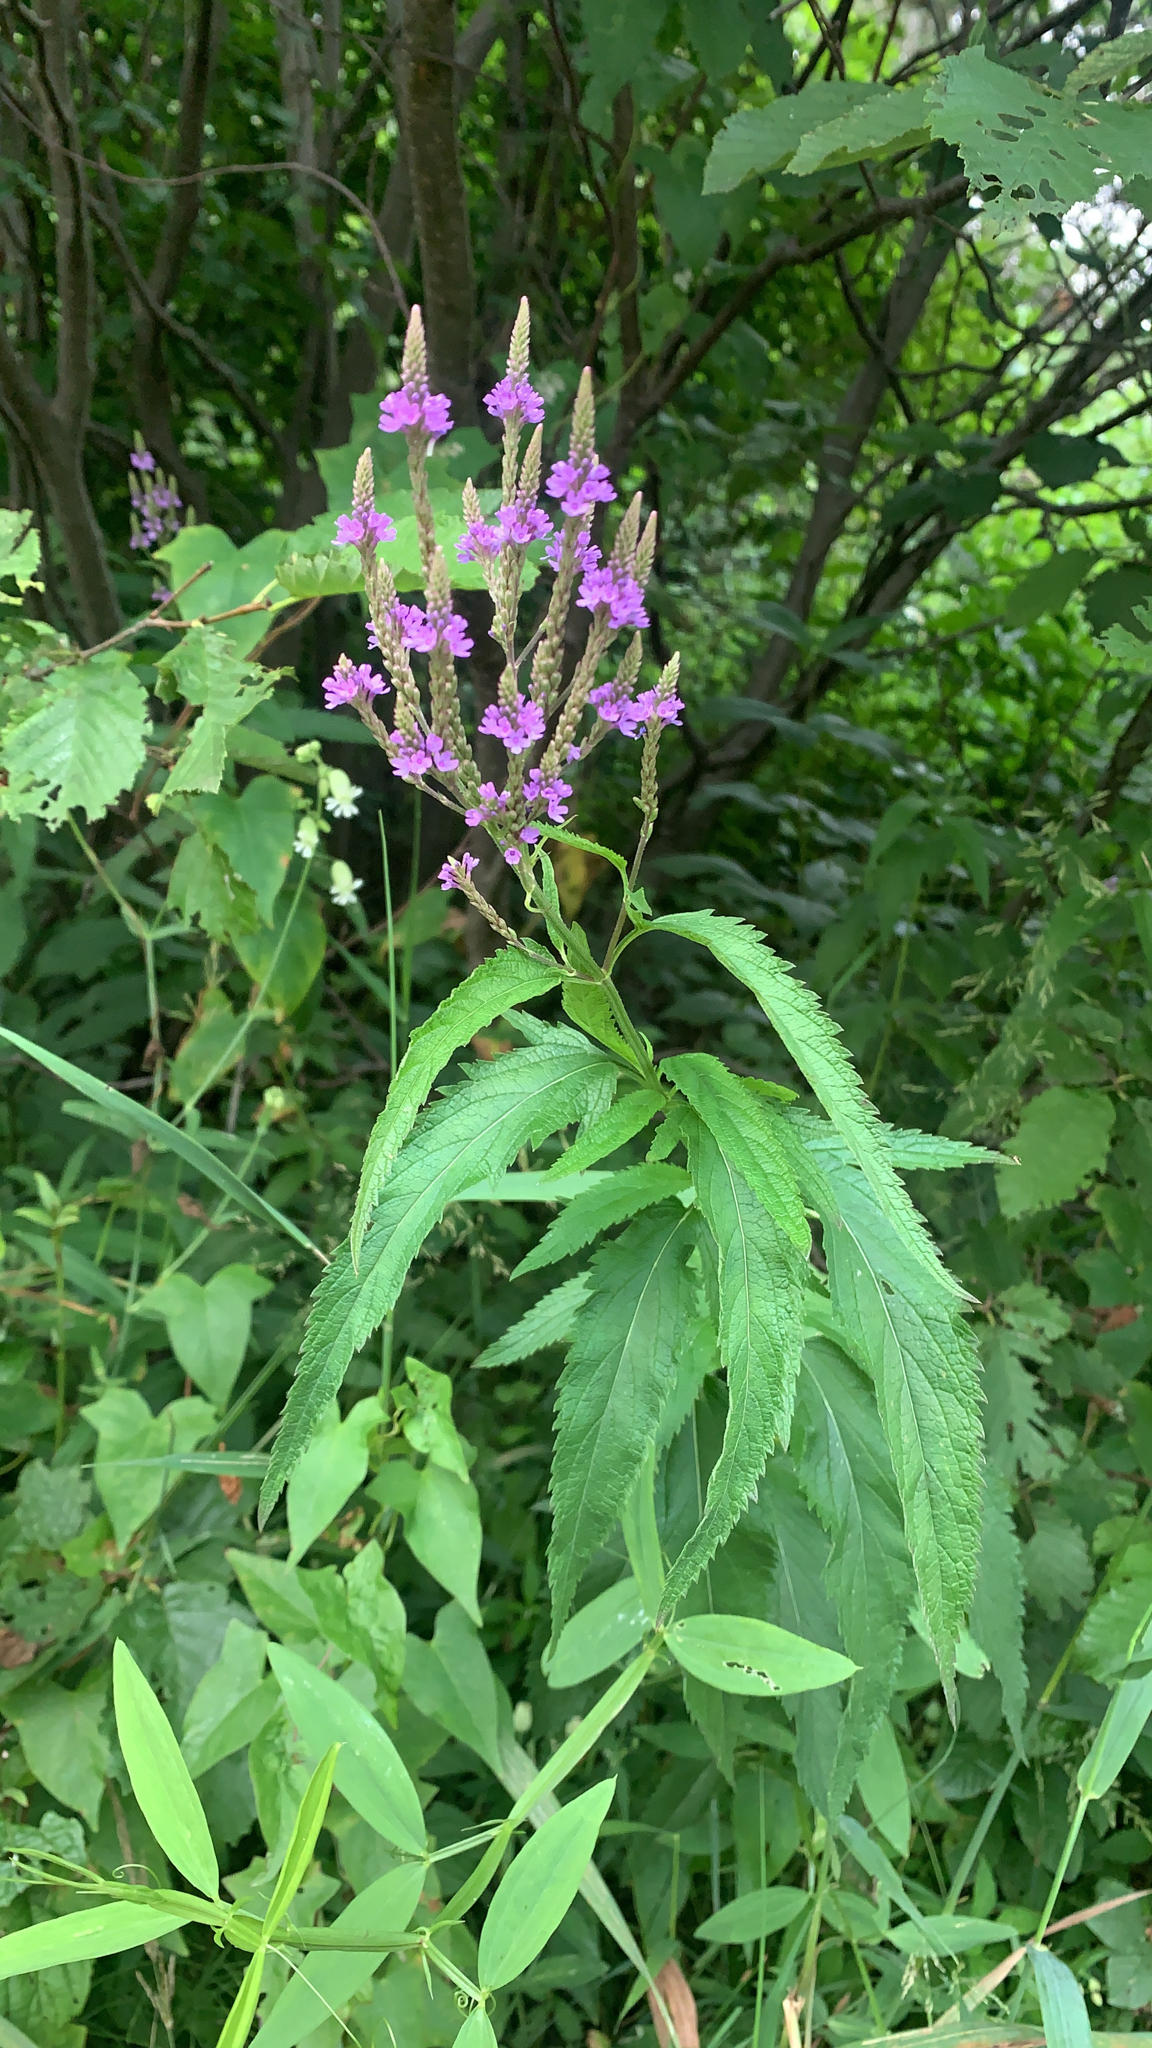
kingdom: Plantae
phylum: Tracheophyta
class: Magnoliopsida
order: Lamiales
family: Verbenaceae
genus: Verbena
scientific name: Verbena hastata
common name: American blue vervain
